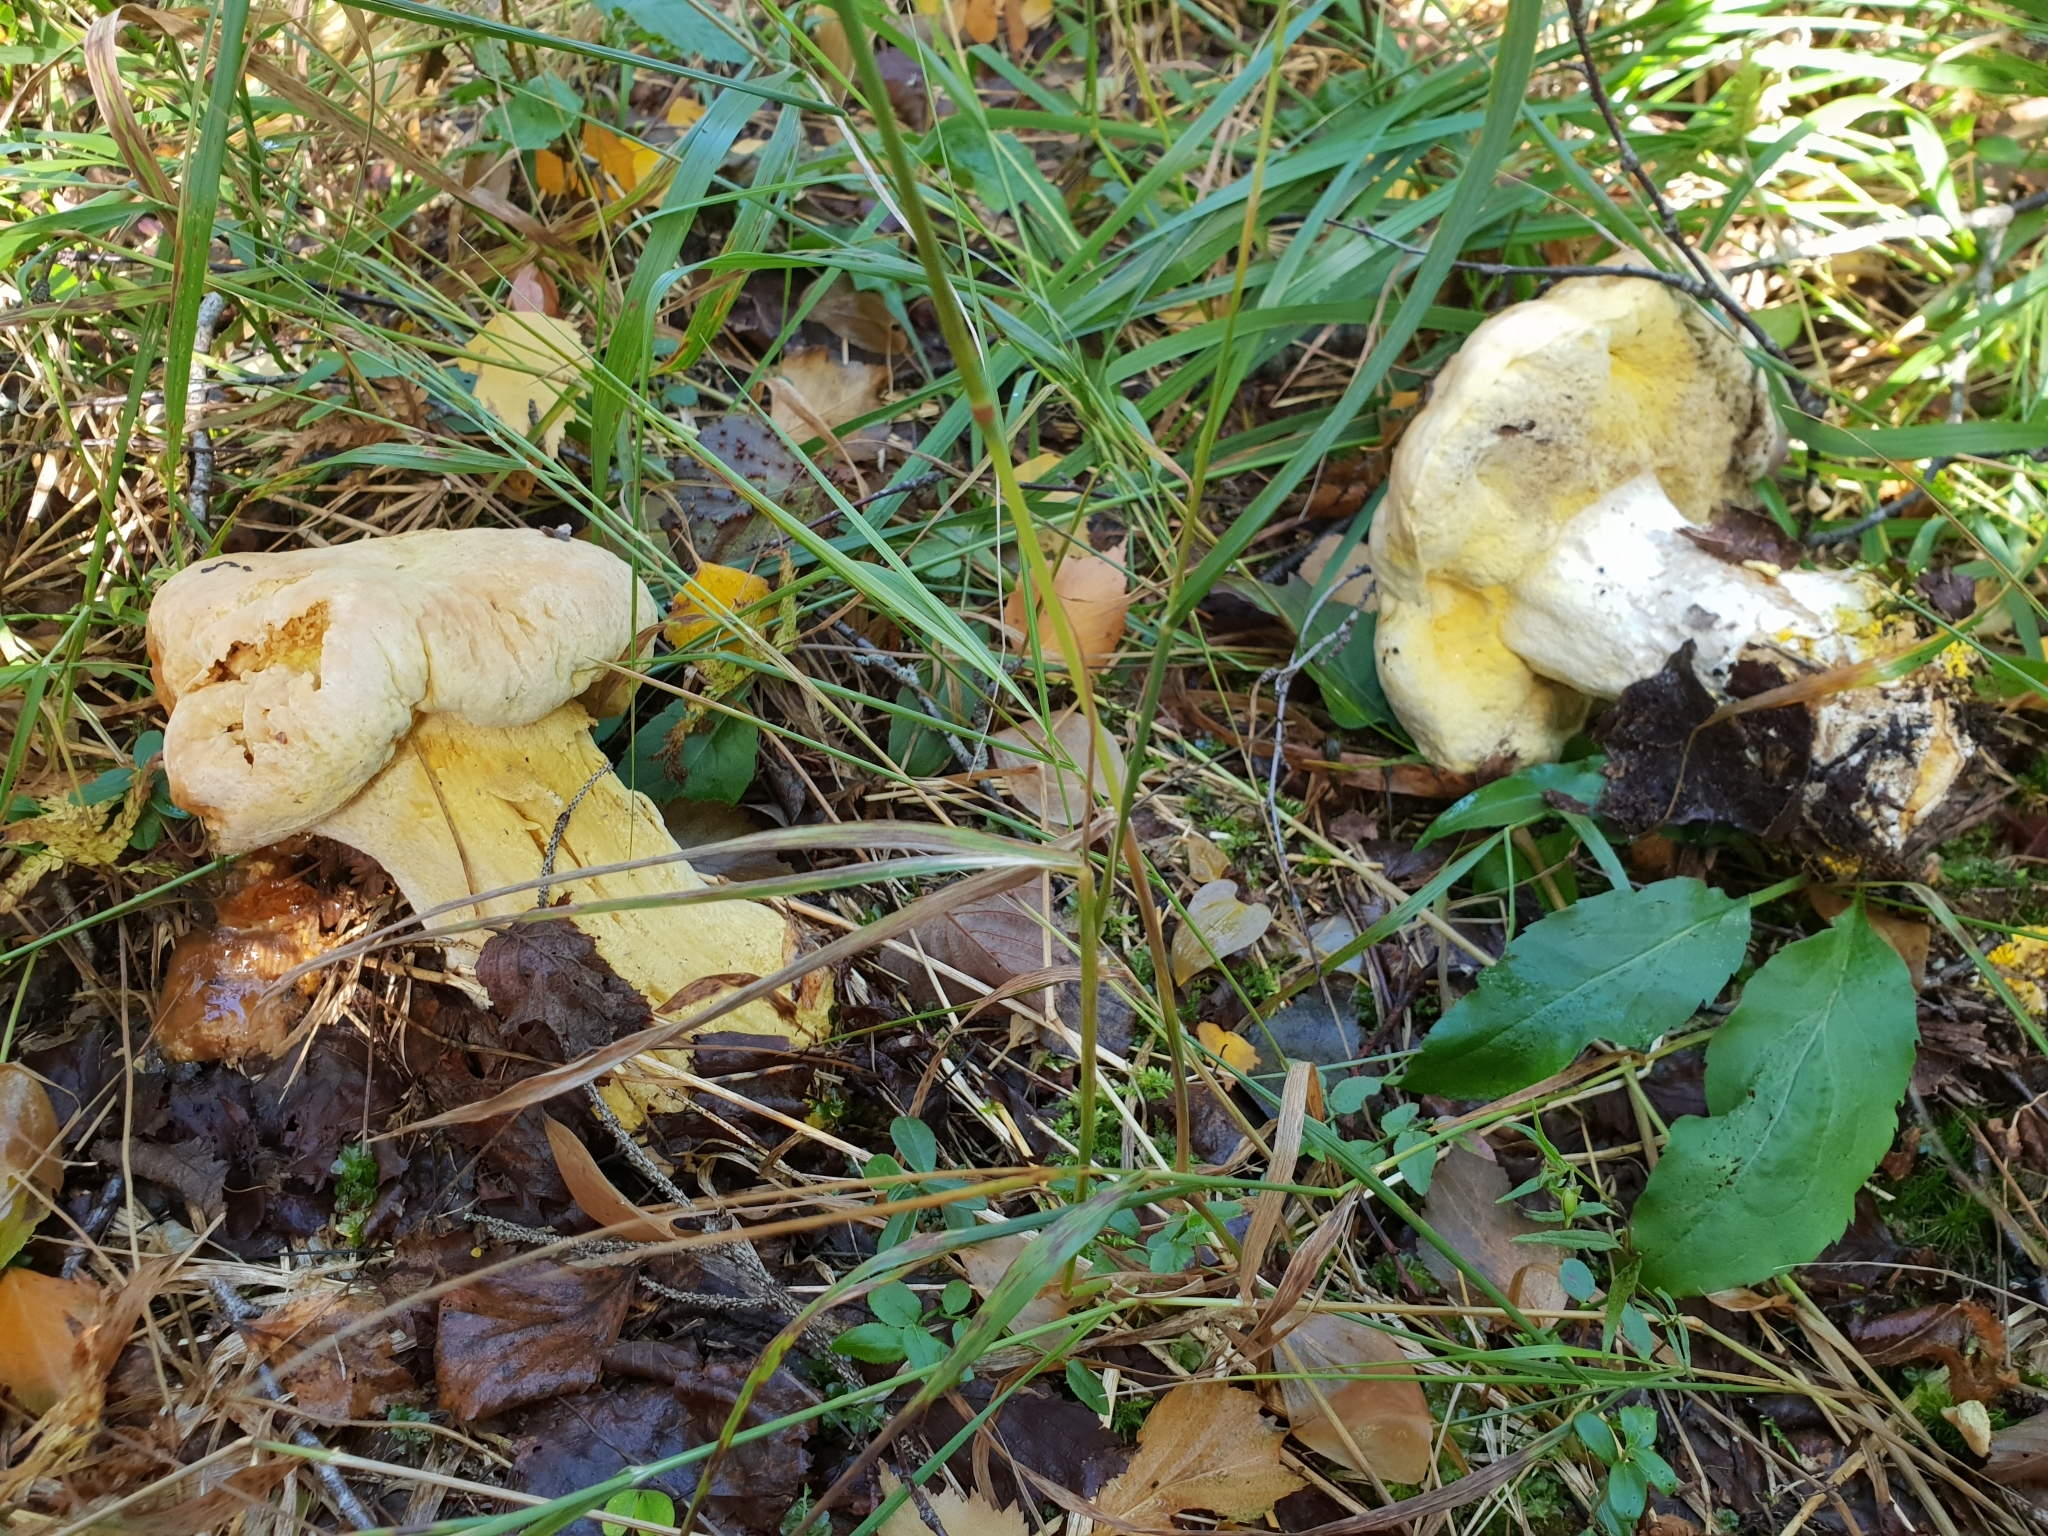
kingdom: Fungi
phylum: Ascomycota
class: Sordariomycetes
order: Hypocreales
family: Hypocreaceae
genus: Hypomyces
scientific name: Hypomyces chrysospermus
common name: Bolete mould
